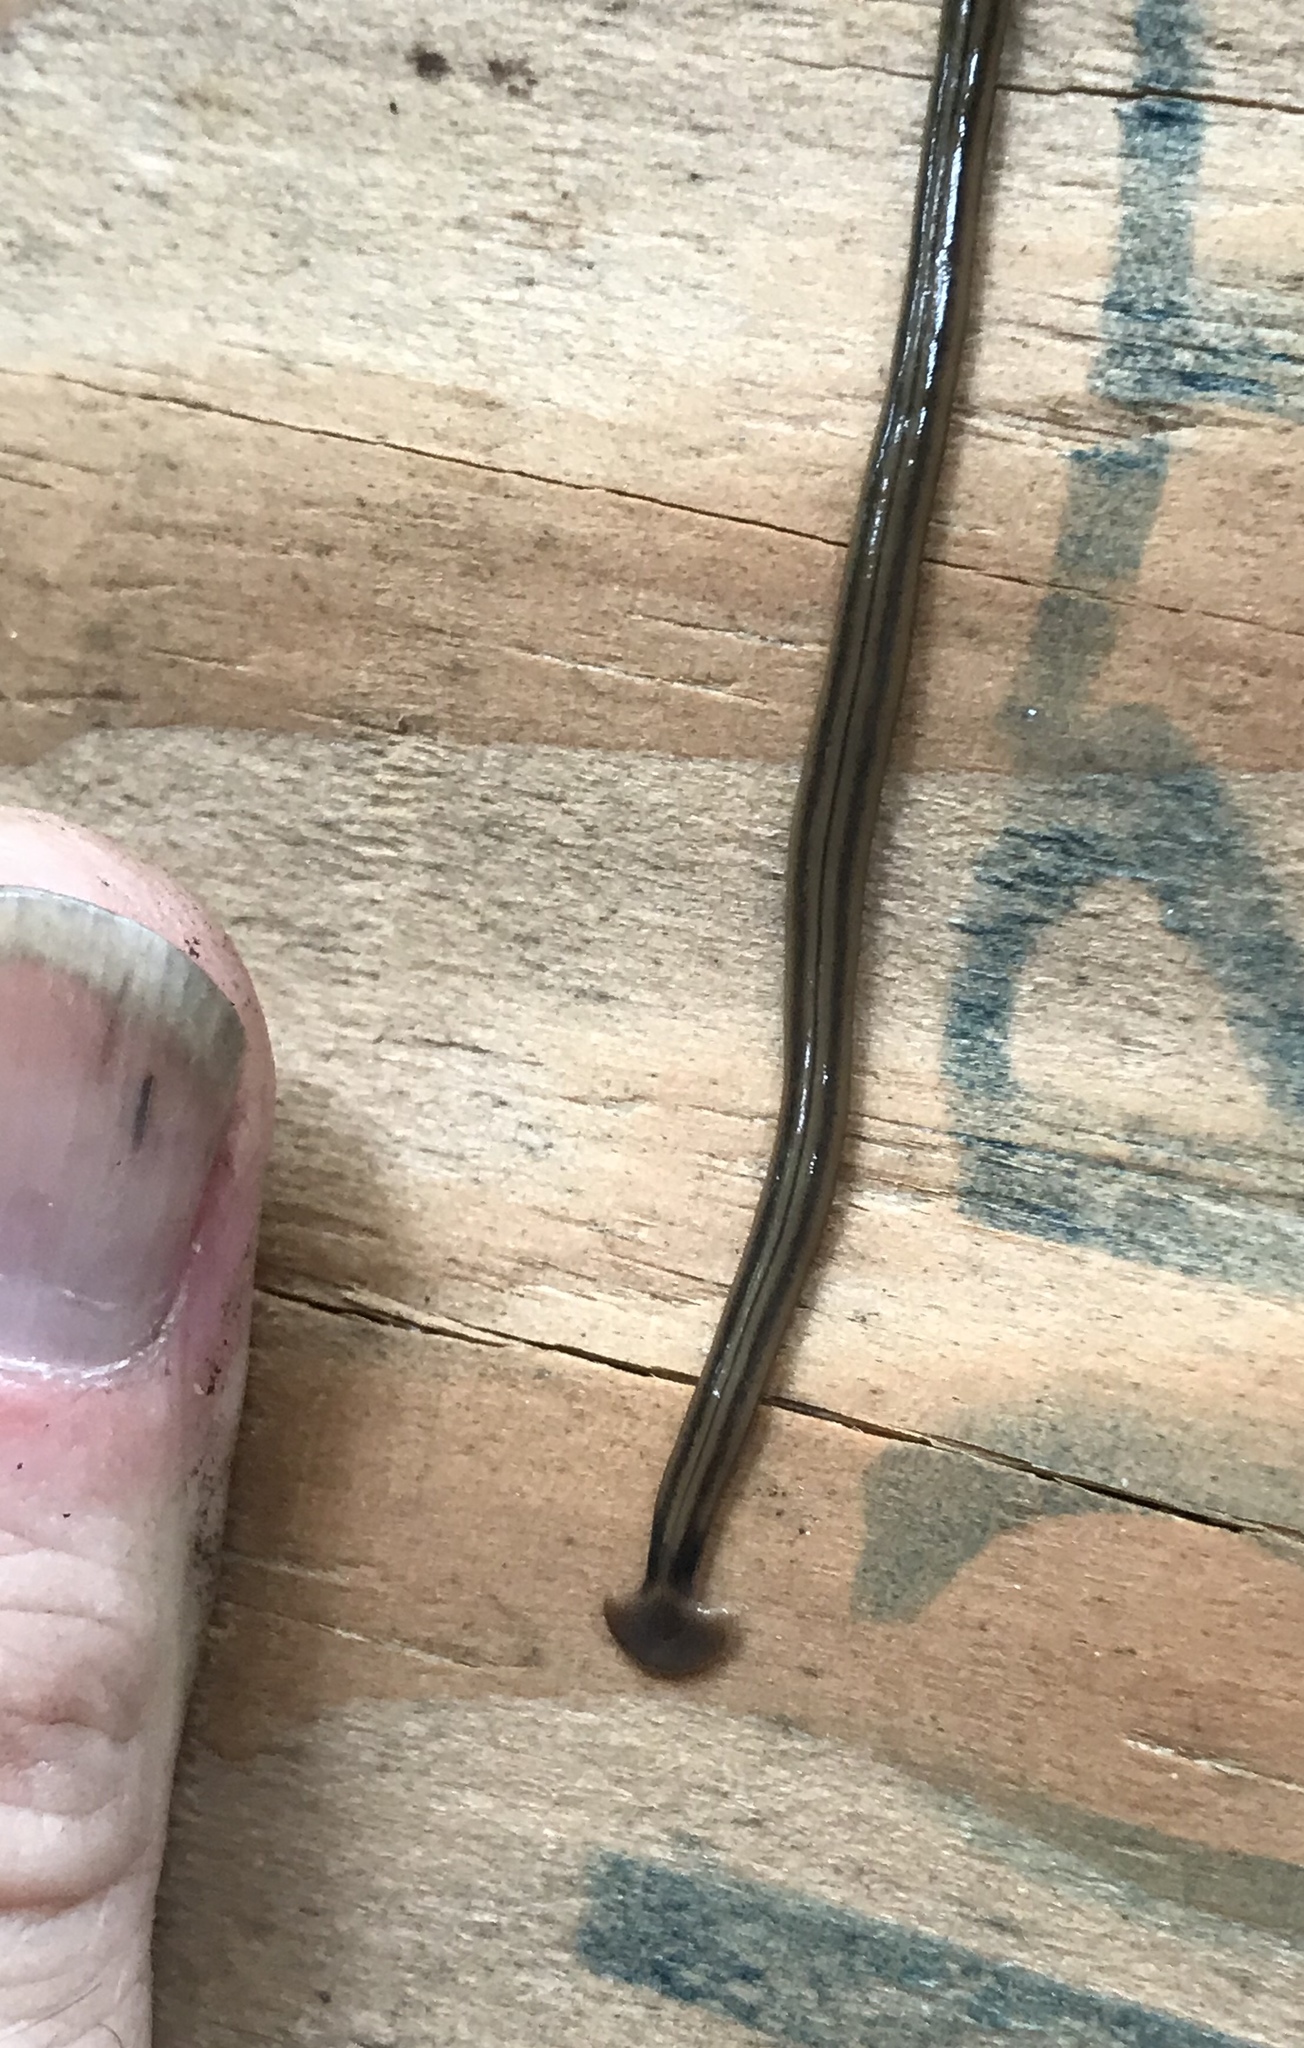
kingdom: Animalia
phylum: Platyhelminthes
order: Tricladida
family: Geoplanidae
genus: Bipalium
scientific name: Bipalium kewense
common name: Hammerhead flatworm
